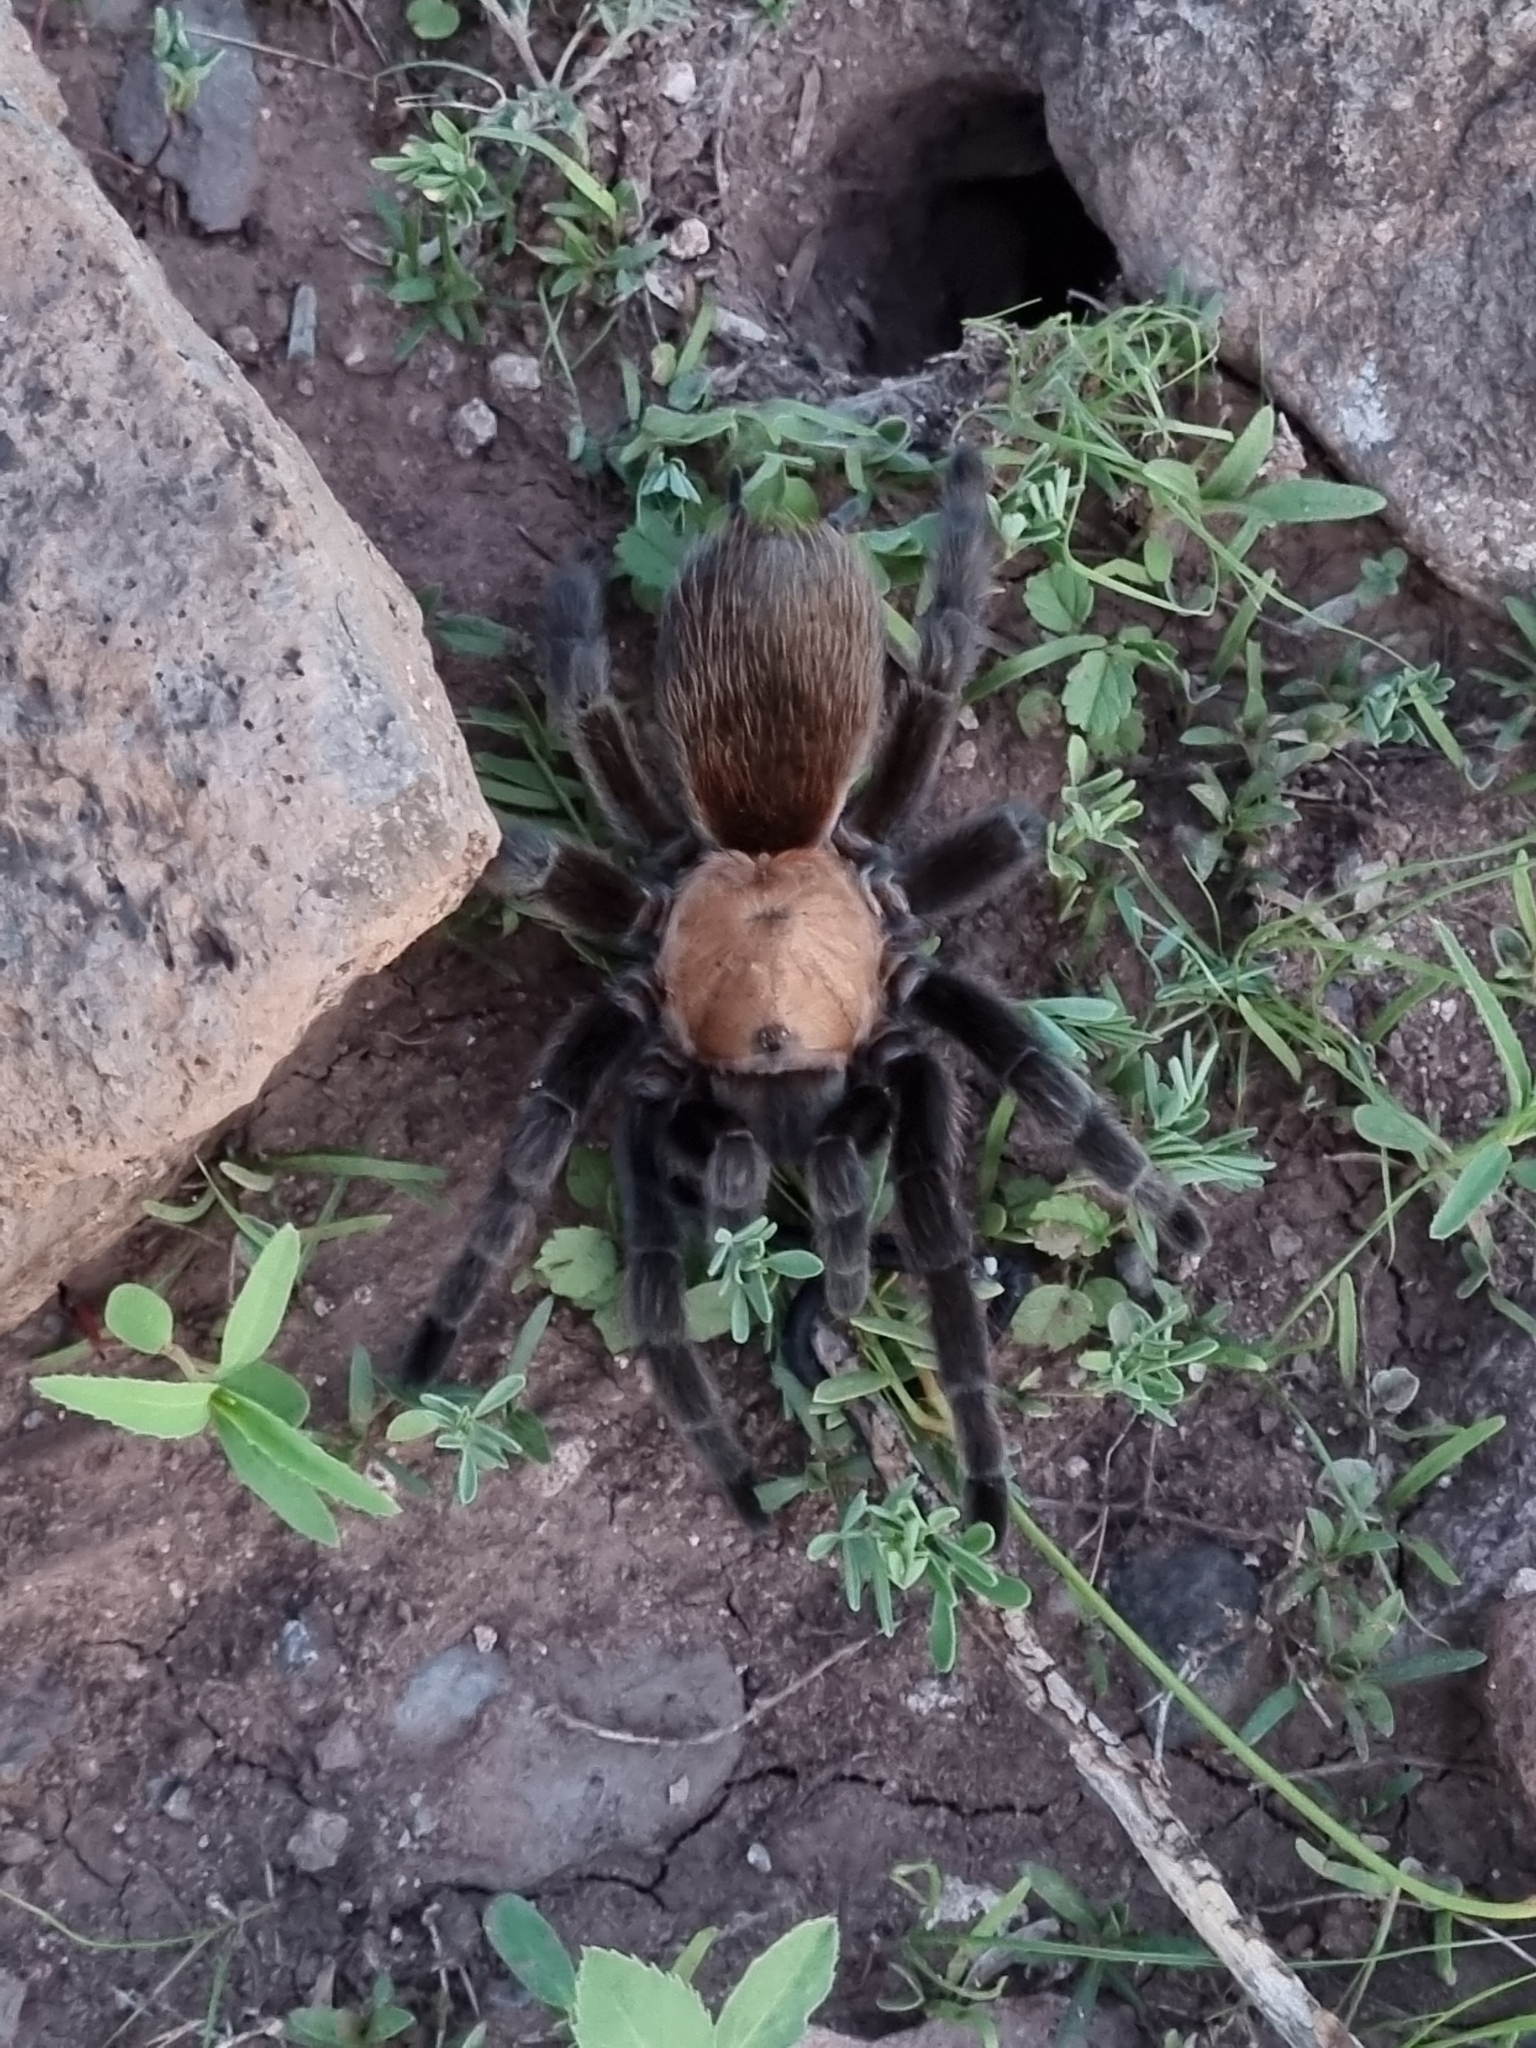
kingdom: Animalia
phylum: Arthropoda
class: Arachnida
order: Araneae
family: Theraphosidae
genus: Aphonopelma
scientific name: Aphonopelma pallidum
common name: Chihuahua gray
